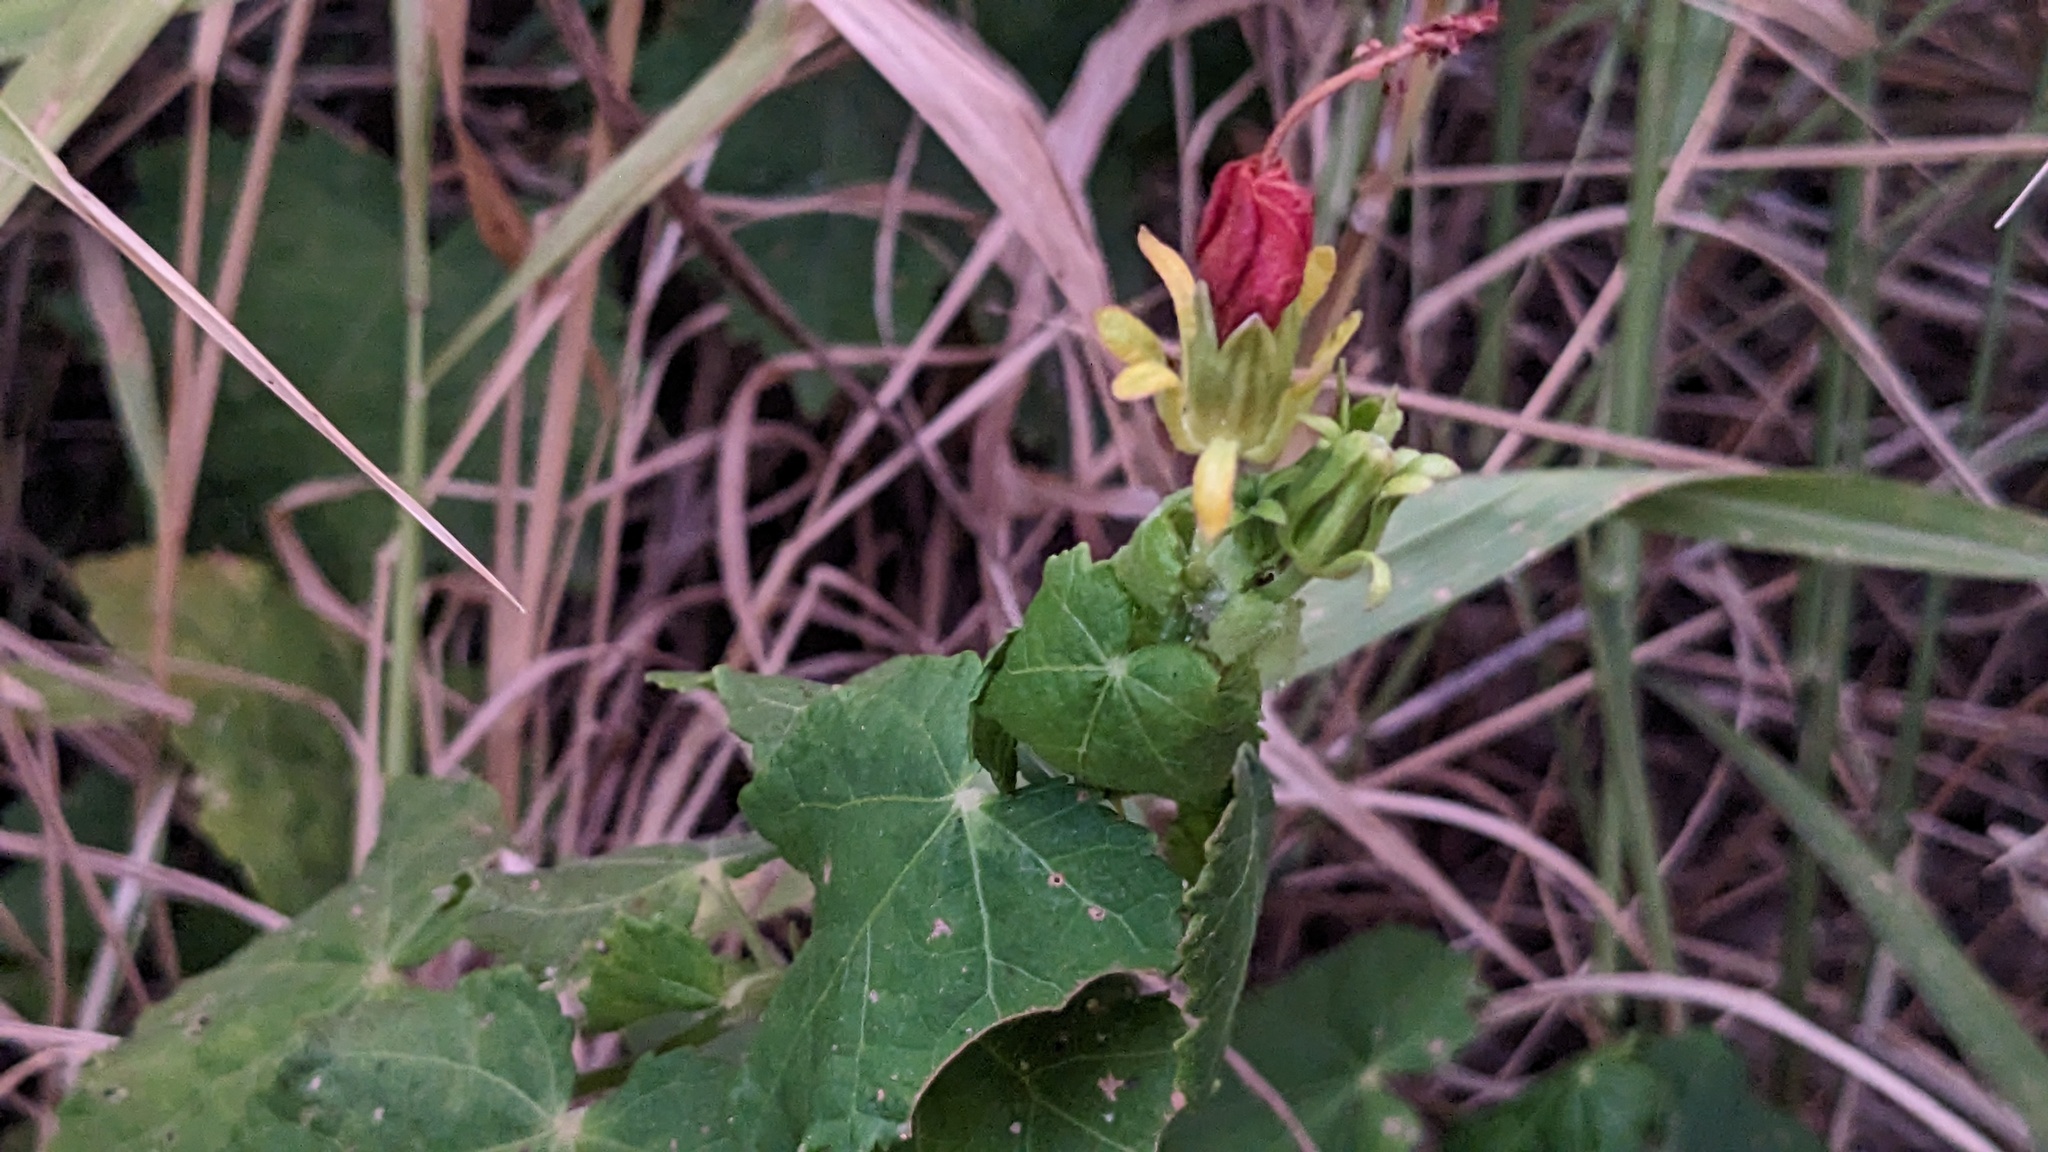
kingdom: Plantae
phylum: Tracheophyta
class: Magnoliopsida
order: Malvales
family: Malvaceae
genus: Malvaviscus
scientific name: Malvaviscus arboreus
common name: Wax mallow
